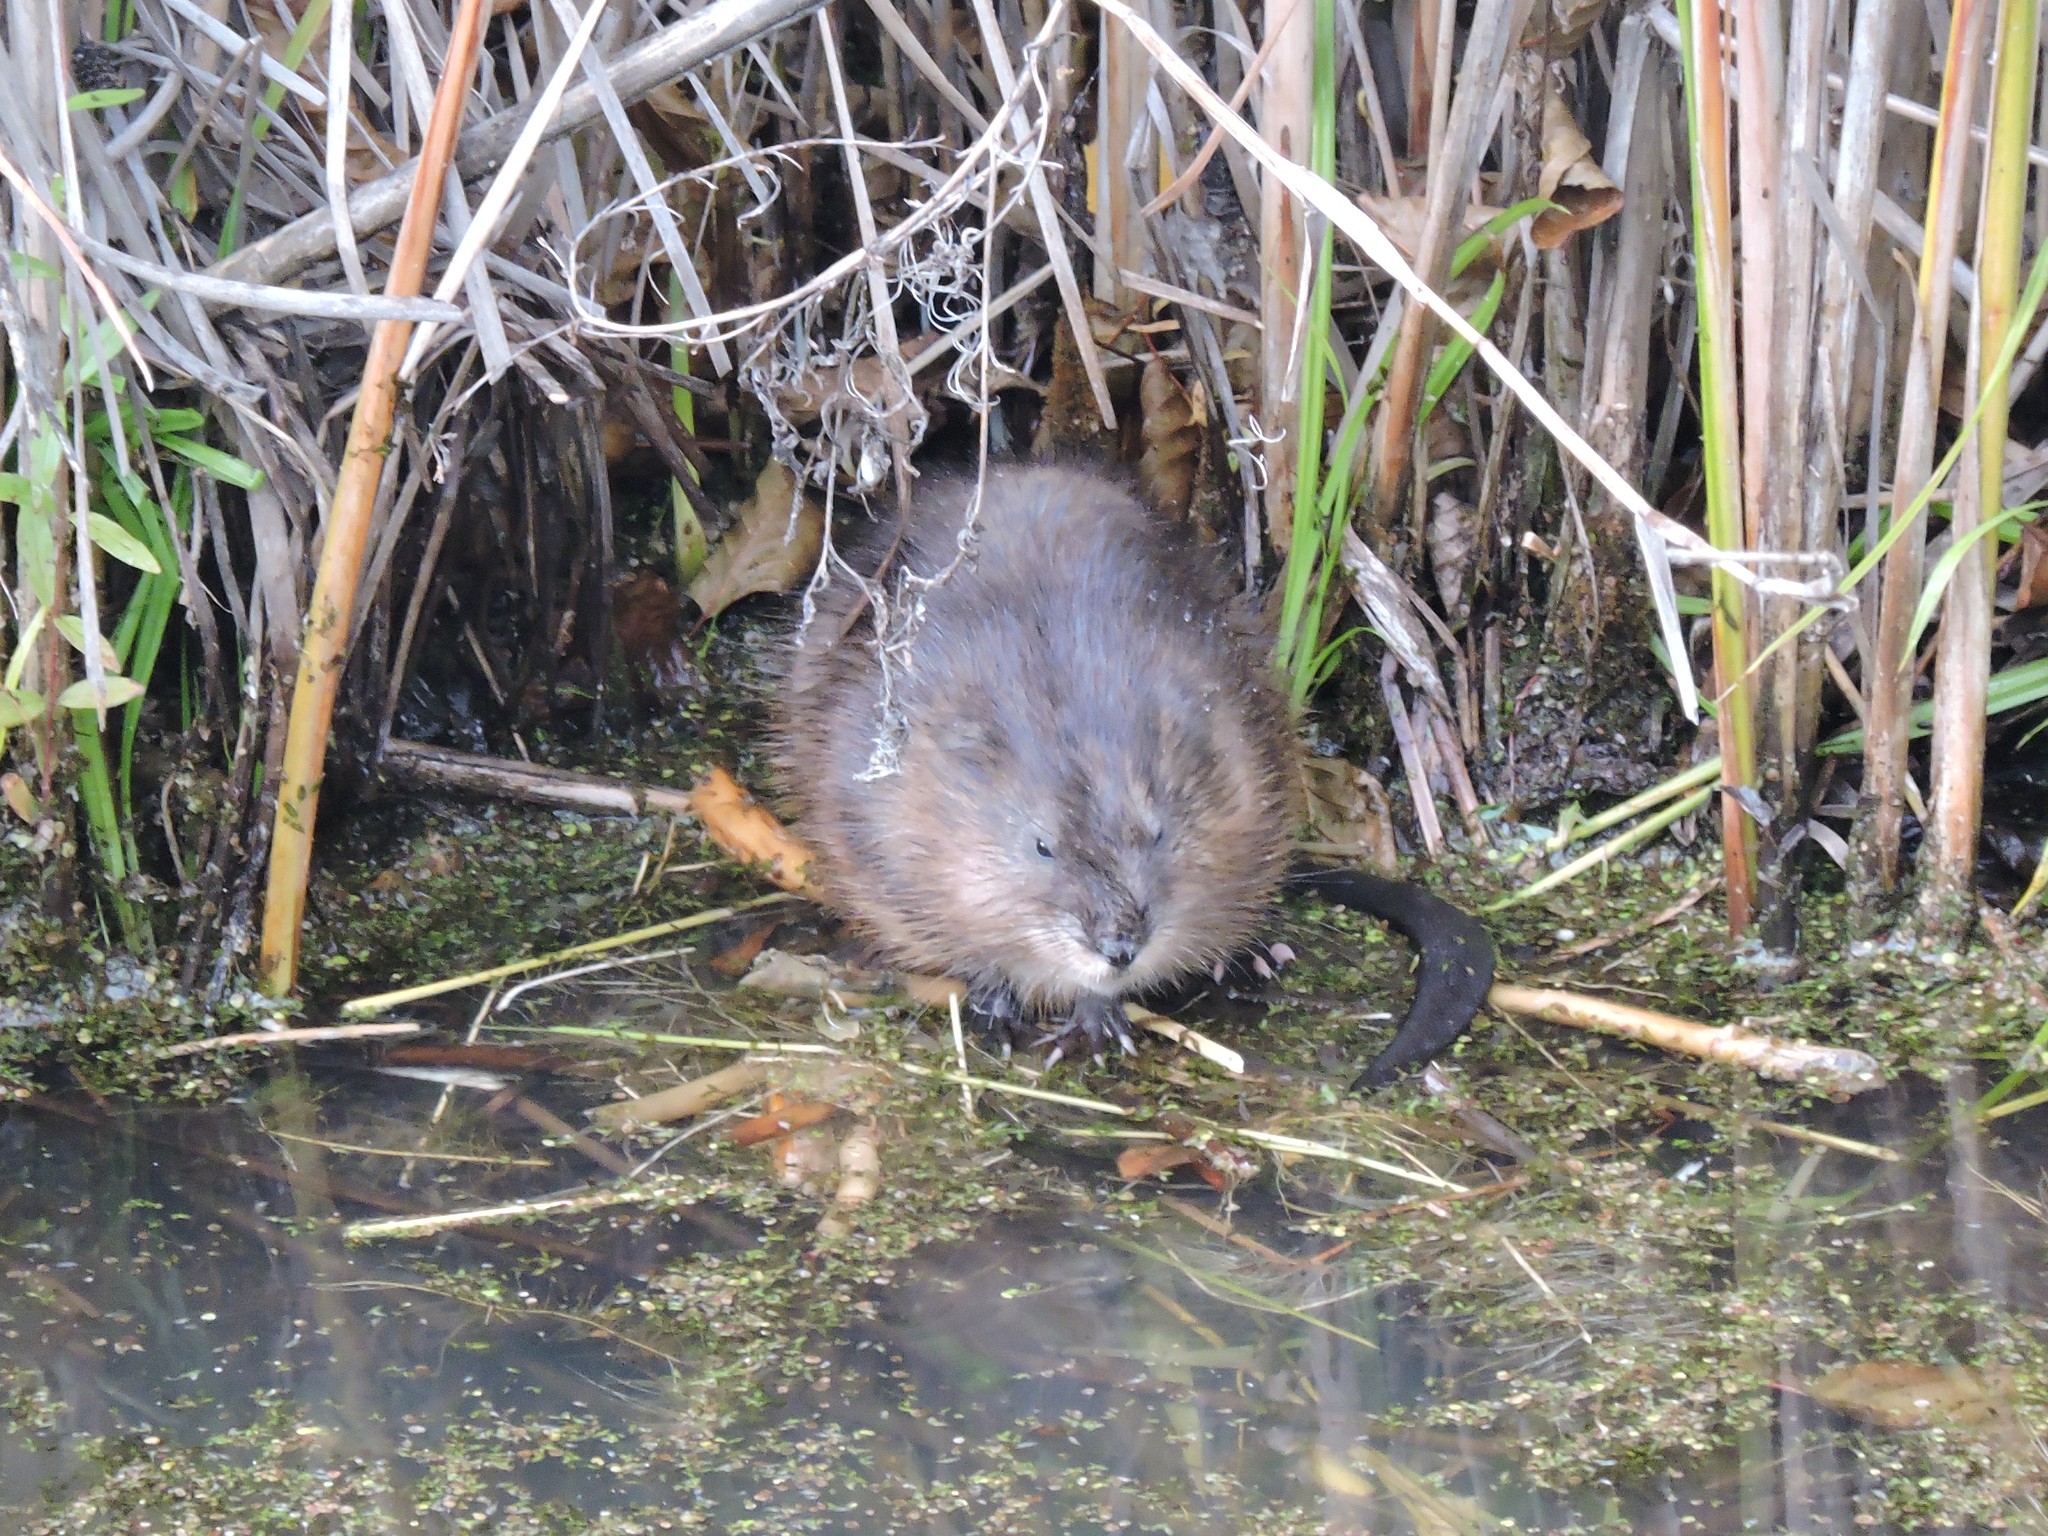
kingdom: Animalia
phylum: Chordata
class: Mammalia
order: Rodentia
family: Cricetidae
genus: Ondatra
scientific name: Ondatra zibethicus
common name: Muskrat
